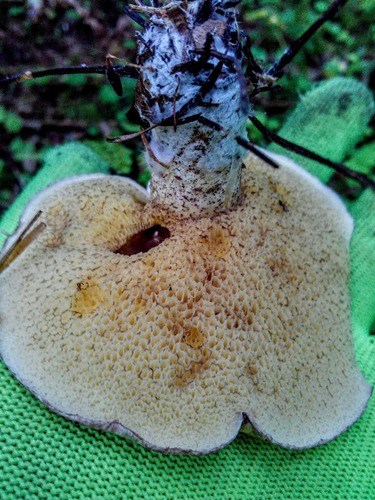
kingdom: Fungi
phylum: Basidiomycota
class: Agaricomycetes
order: Boletales
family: Suillaceae
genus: Suillus
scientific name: Suillus acidus
